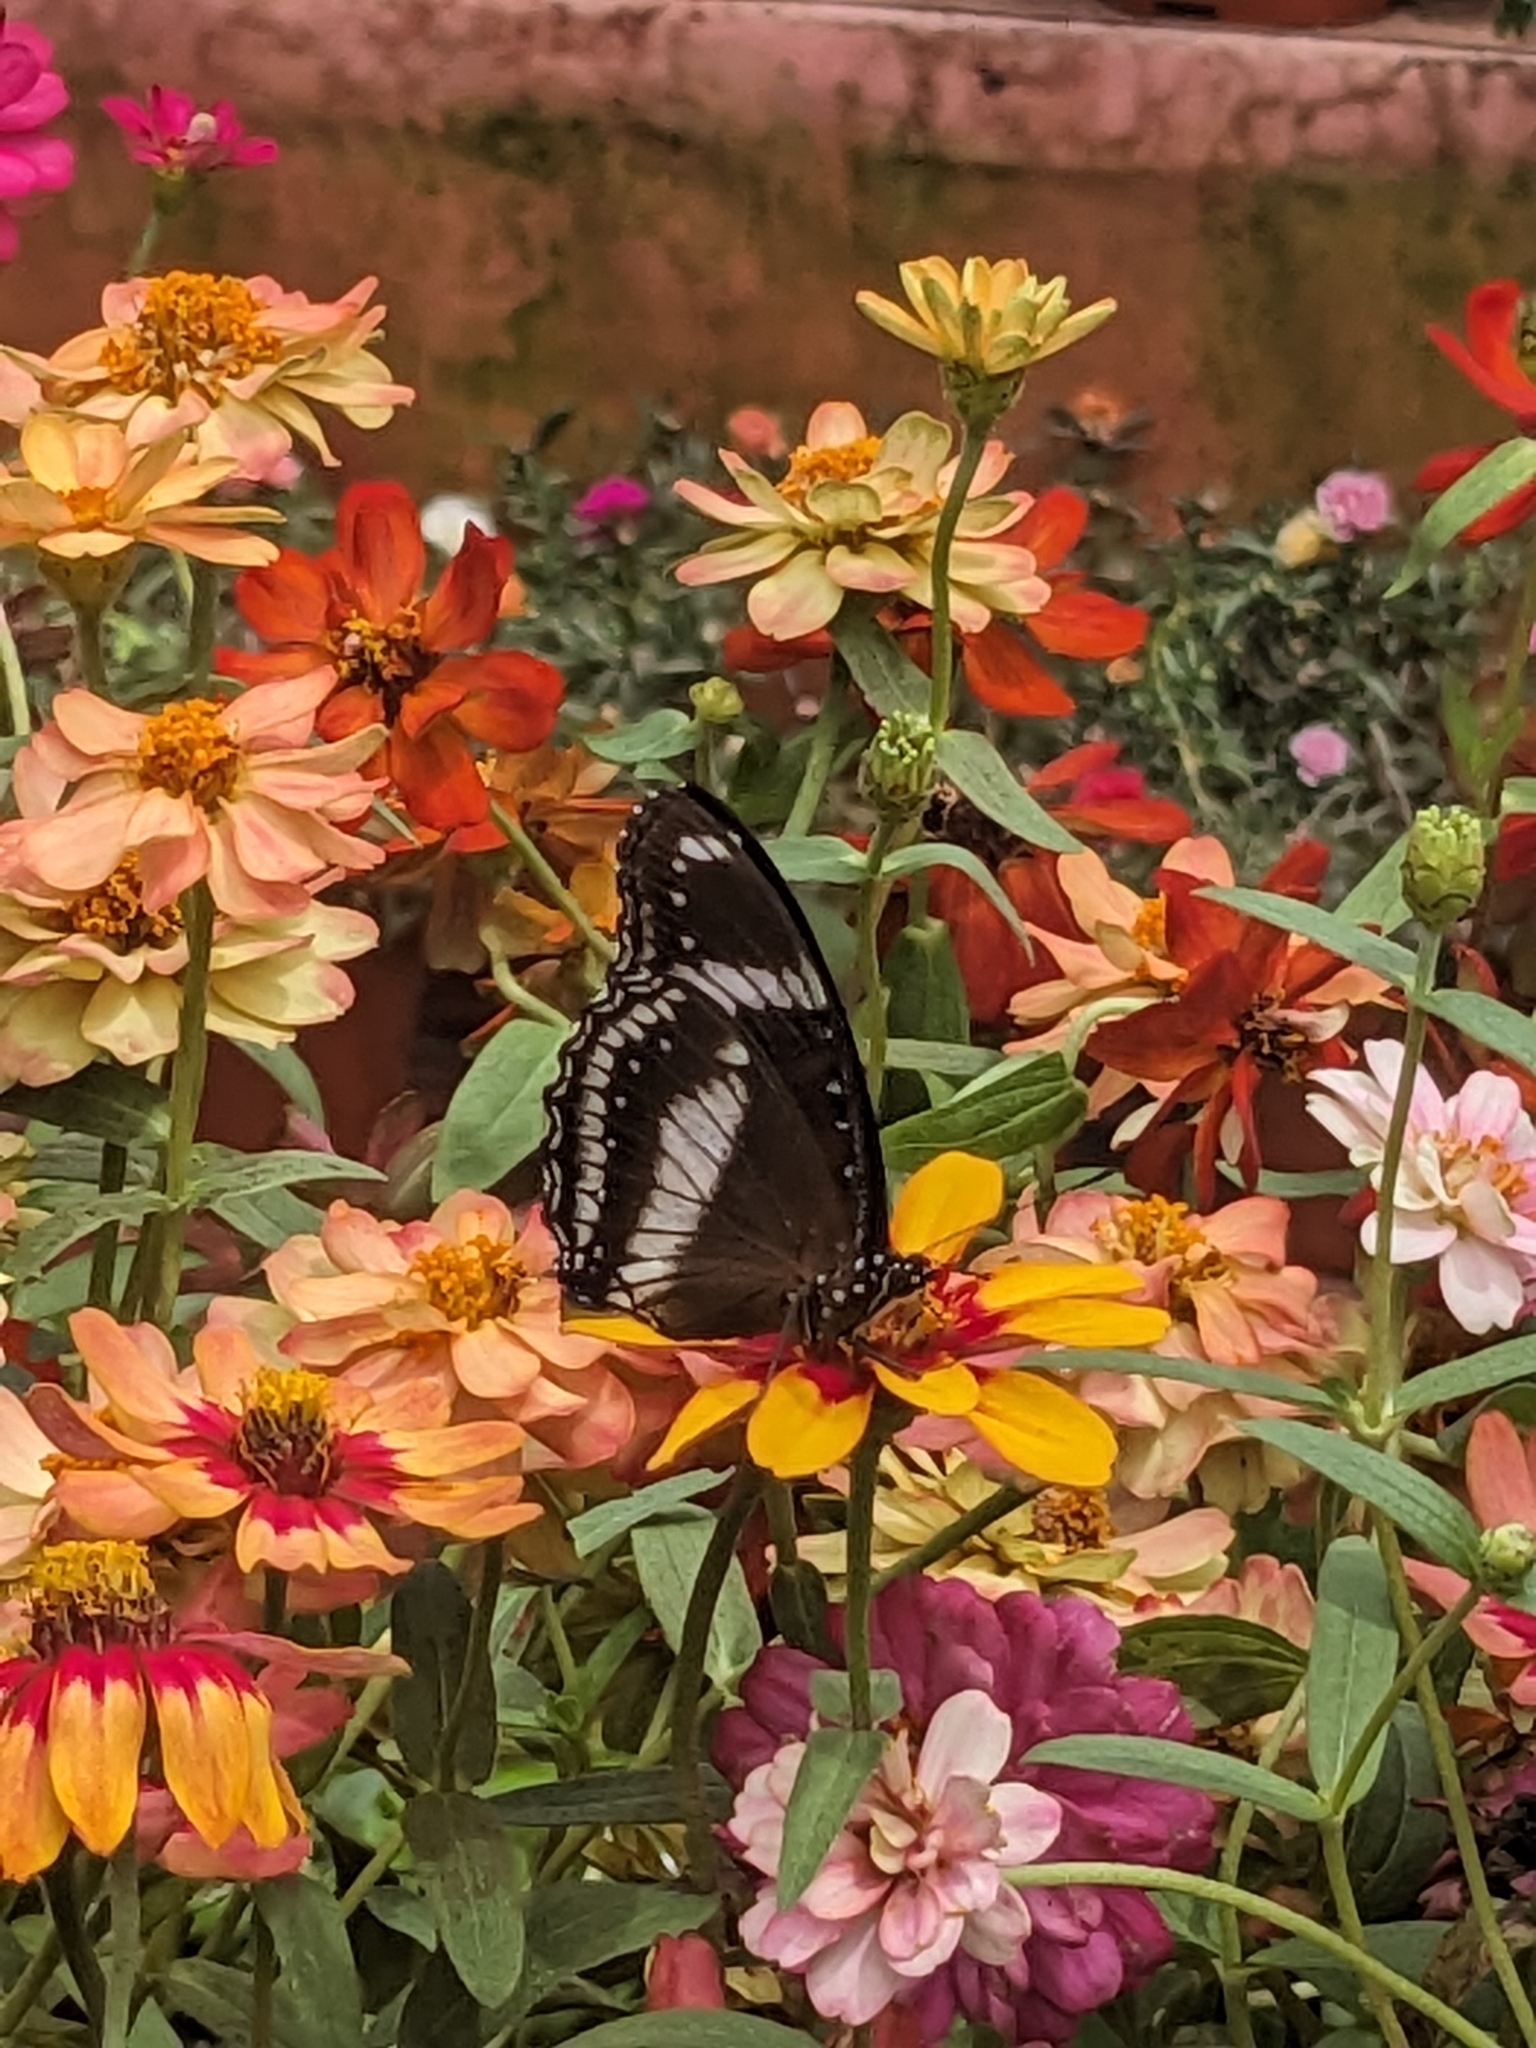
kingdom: Animalia
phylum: Arthropoda
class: Insecta
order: Lepidoptera
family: Nymphalidae
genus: Hypolimnas
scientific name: Hypolimnas bolina
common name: Great eggfly
